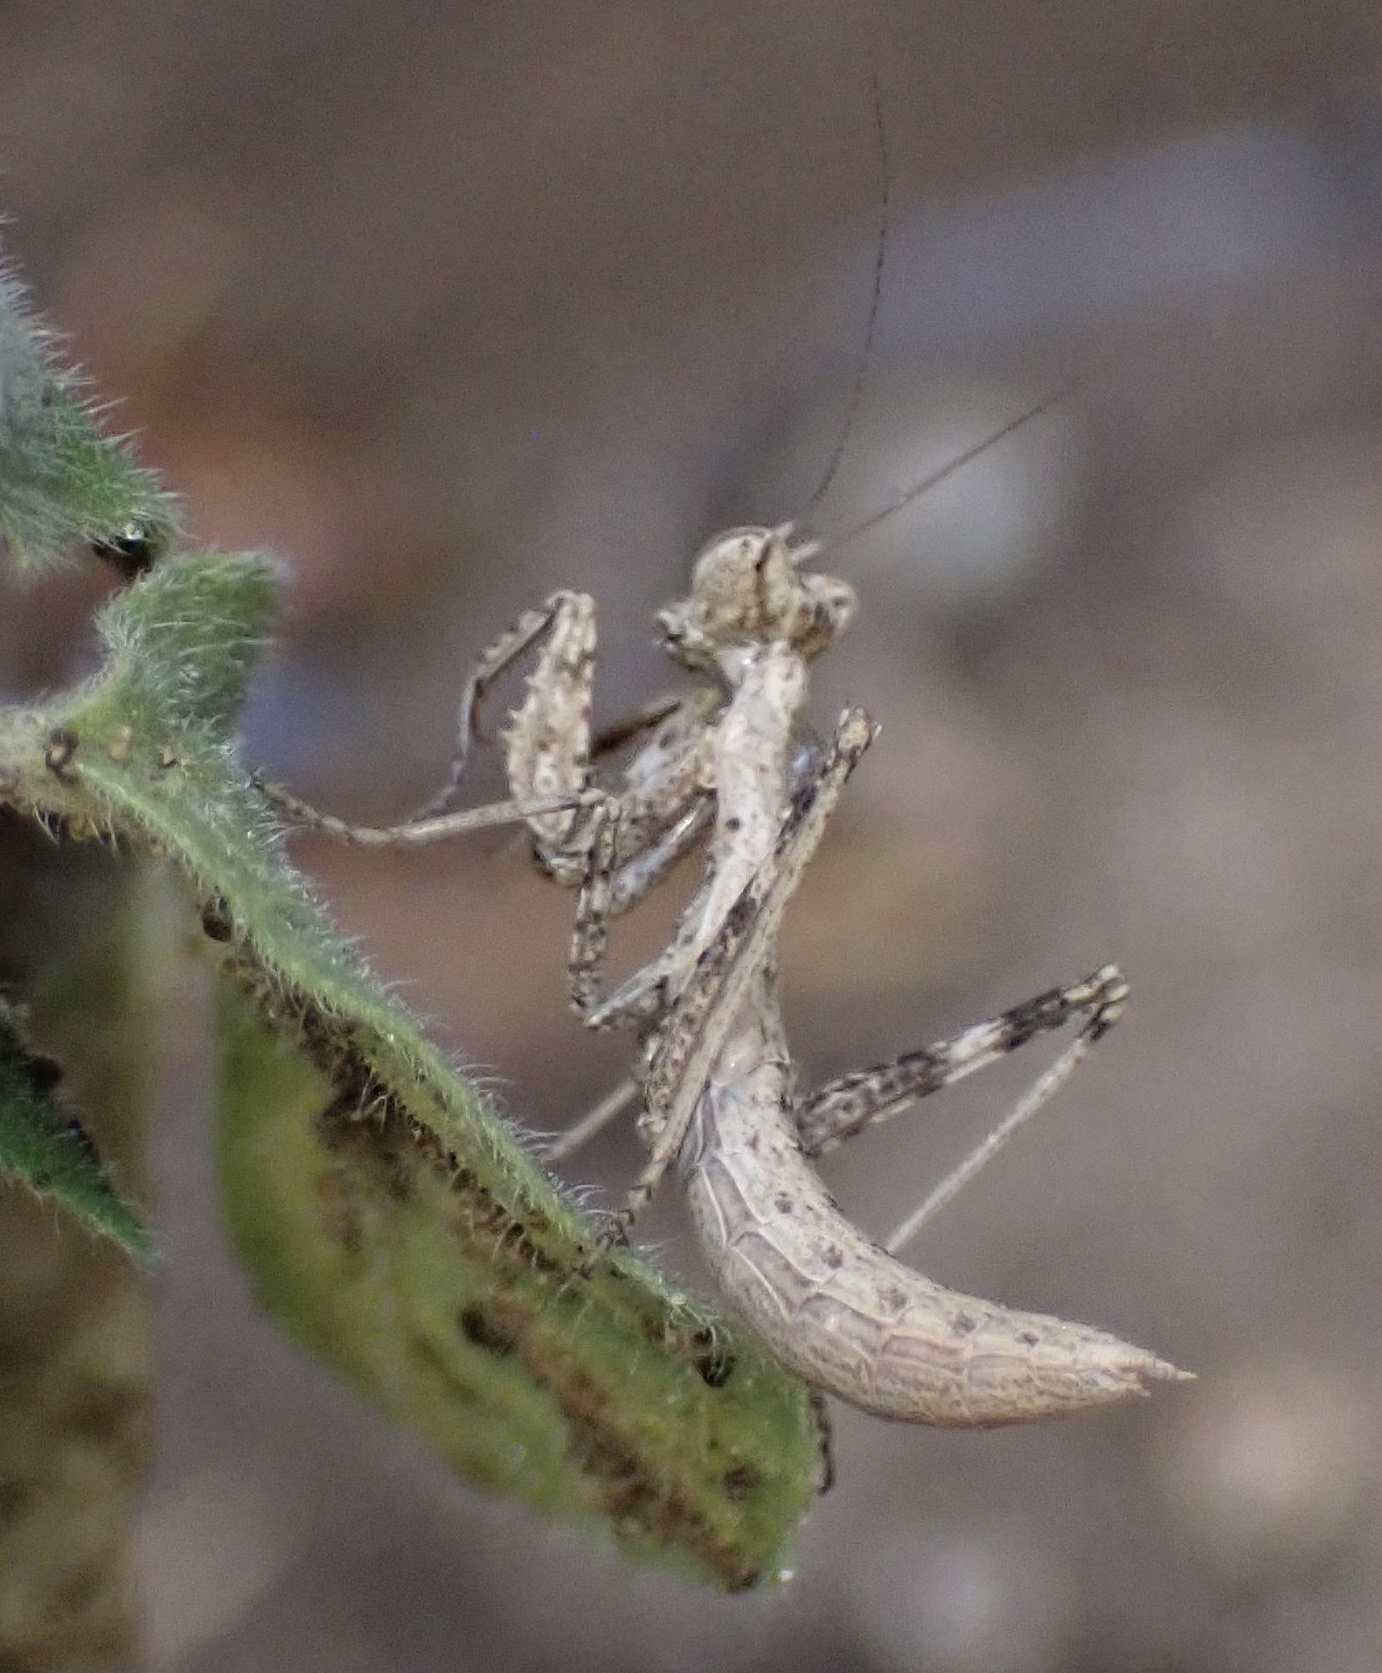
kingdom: Animalia
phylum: Arthropoda
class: Insecta
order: Mantodea
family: Amelidae
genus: Ameles
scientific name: Ameles spallanzania
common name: European dwarf mantis
